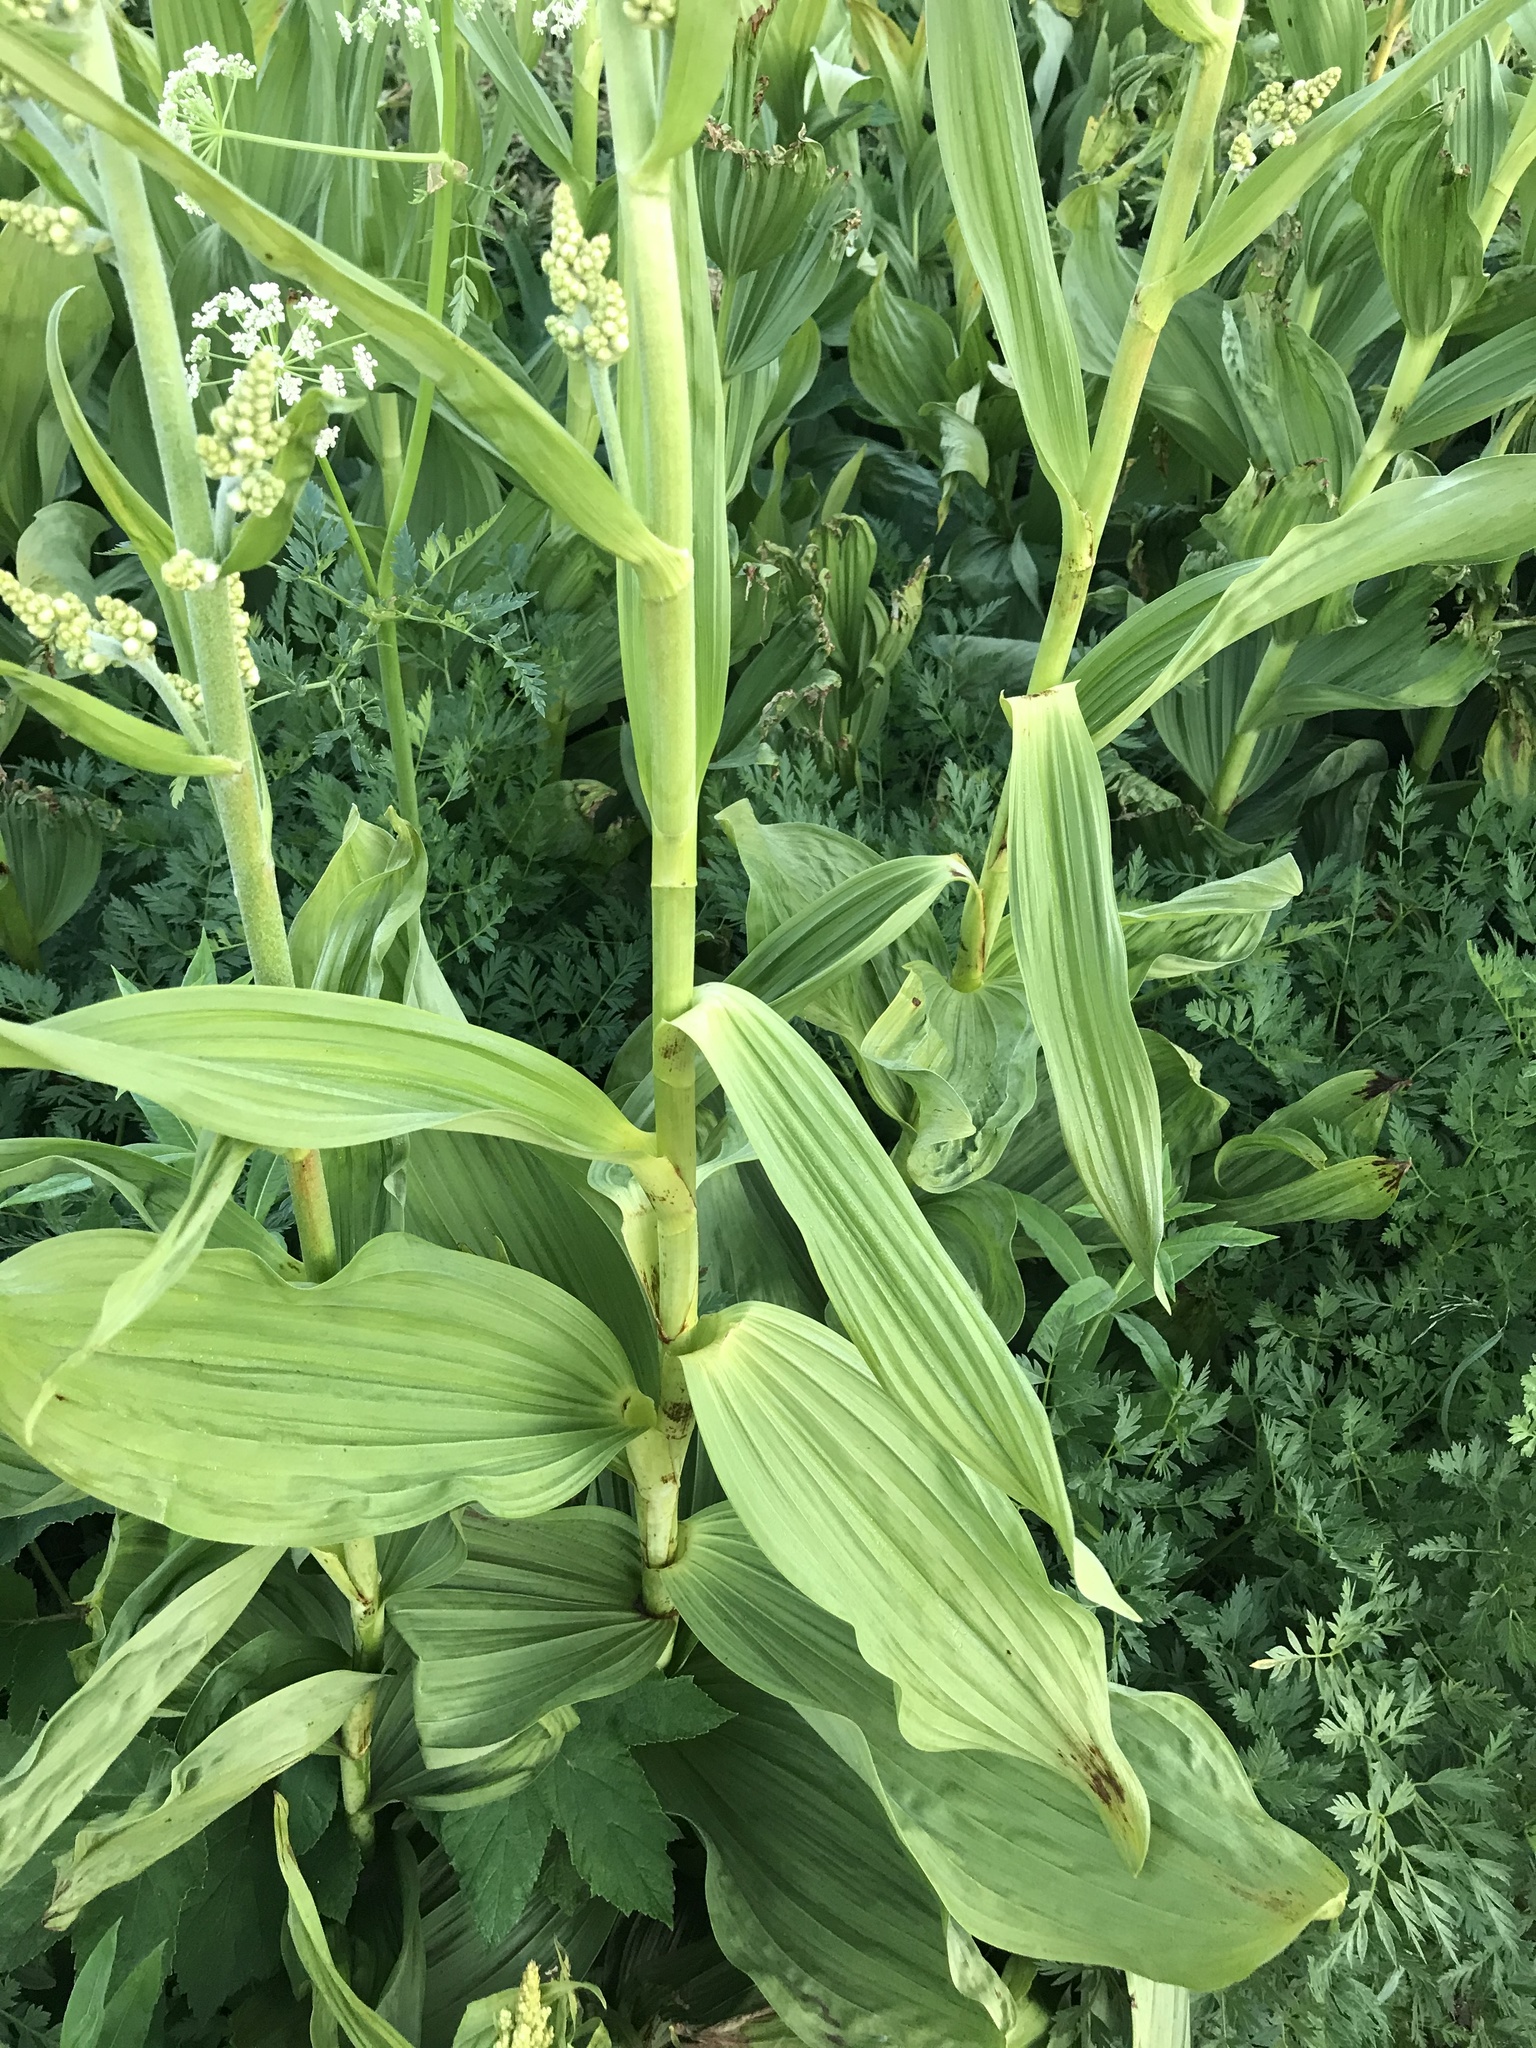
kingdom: Plantae
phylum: Tracheophyta
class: Liliopsida
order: Liliales
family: Melanthiaceae
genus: Veratrum
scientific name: Veratrum californicum
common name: California veratrum
